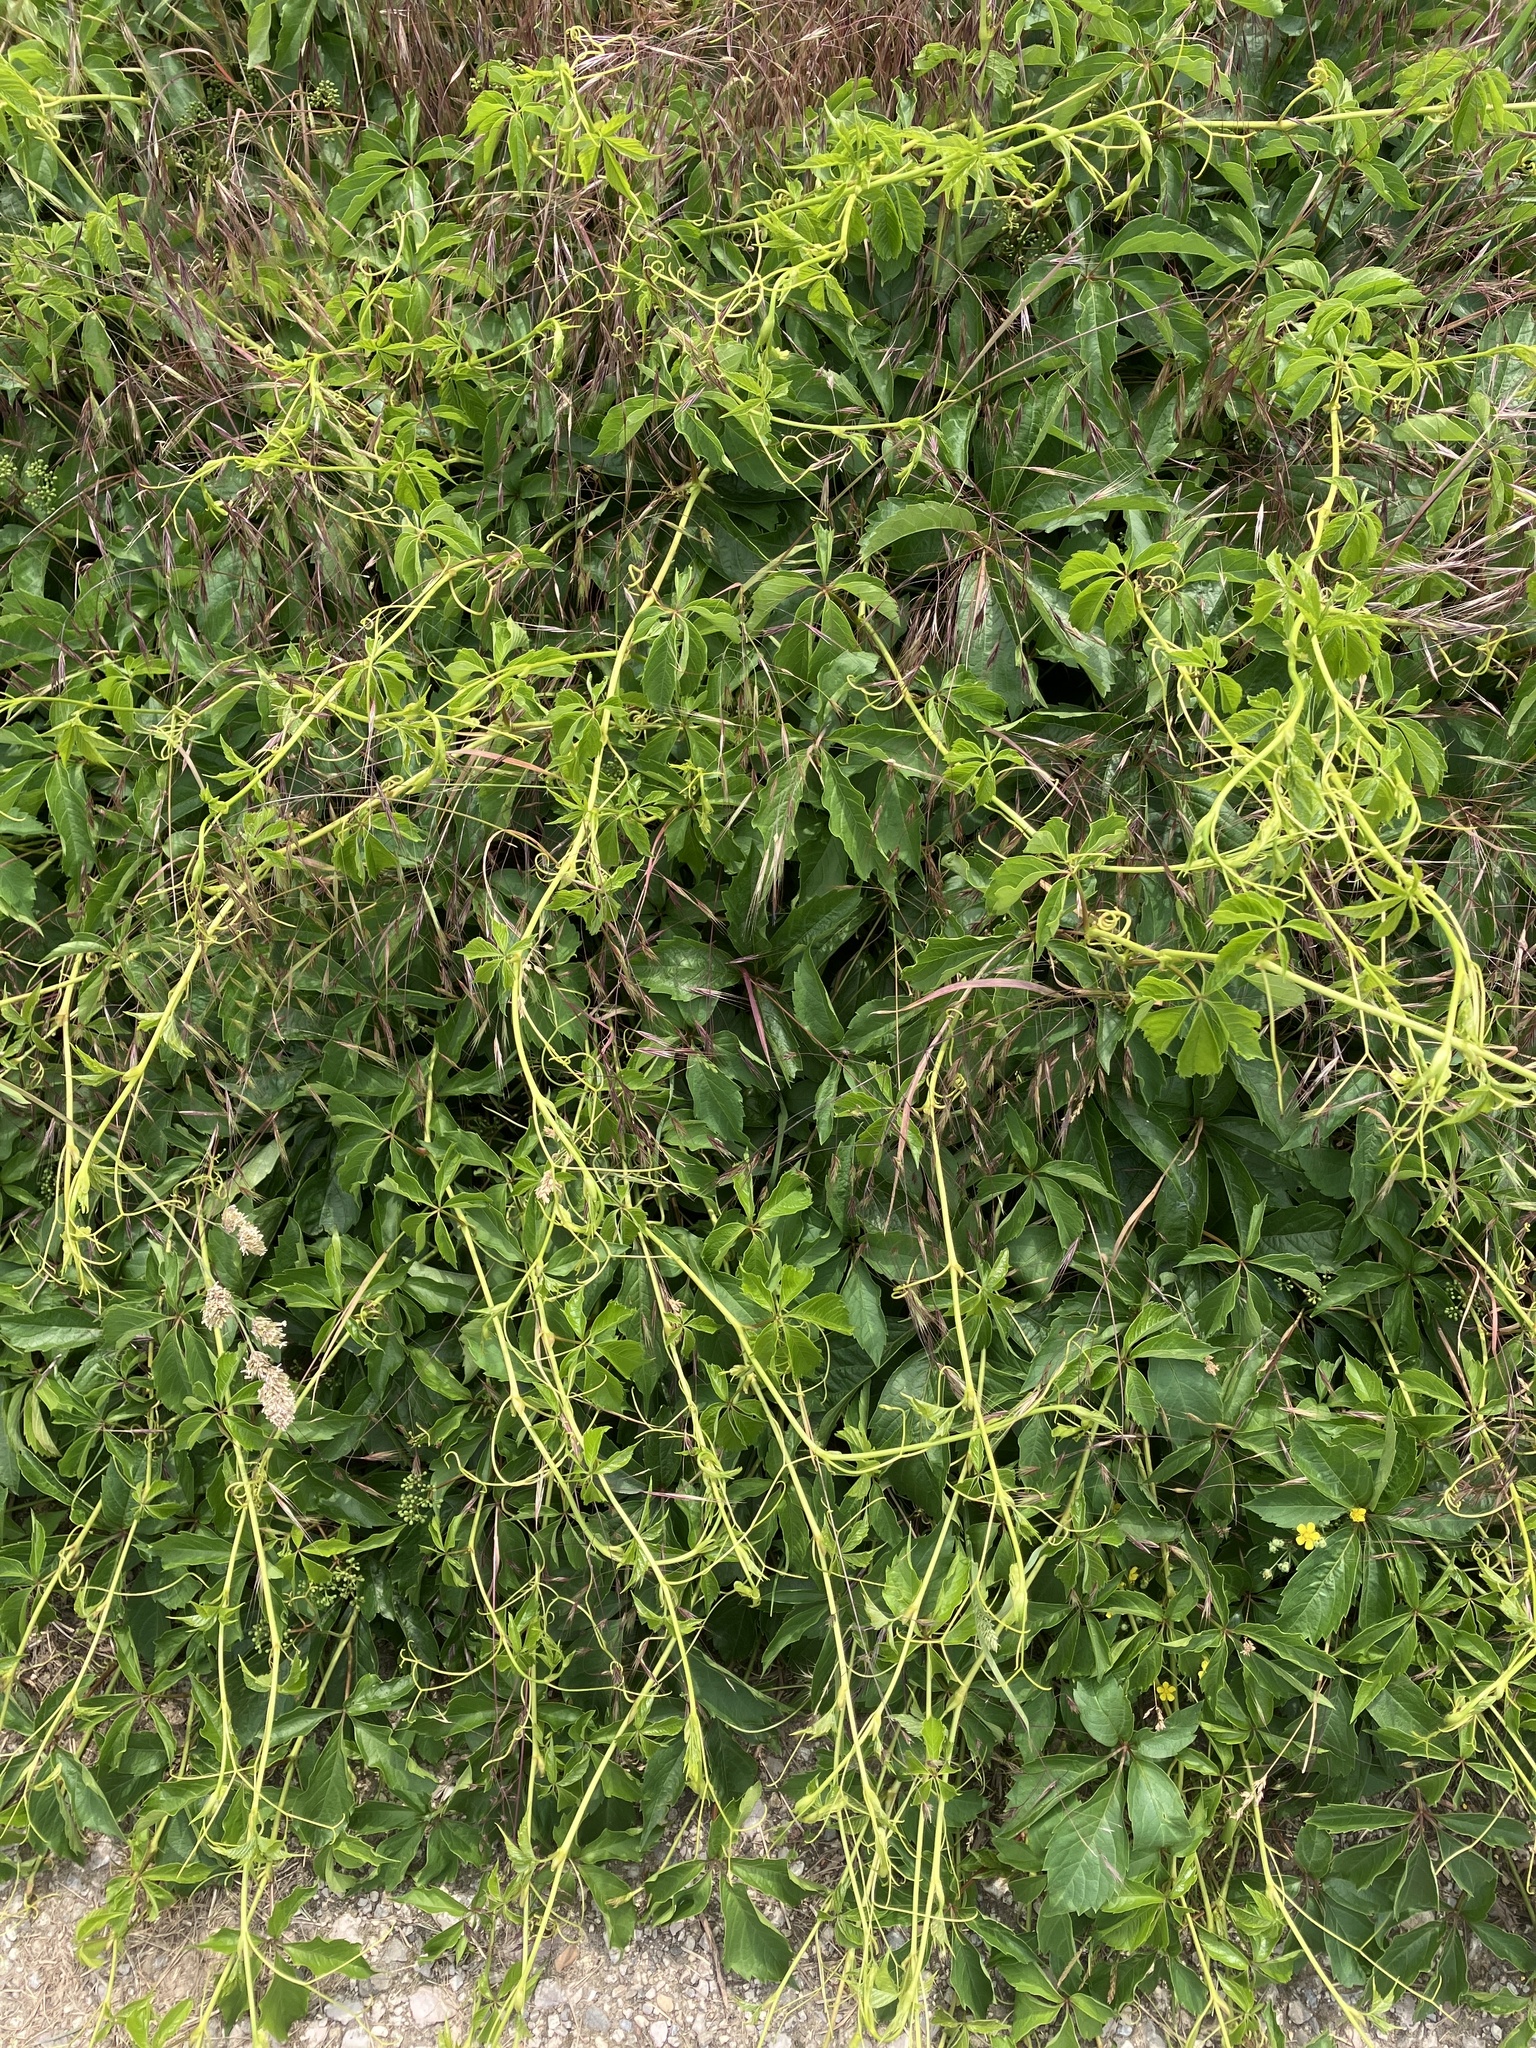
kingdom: Plantae
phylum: Tracheophyta
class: Magnoliopsida
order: Vitales
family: Vitaceae
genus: Parthenocissus
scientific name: Parthenocissus inserta
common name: False virginia-creeper
